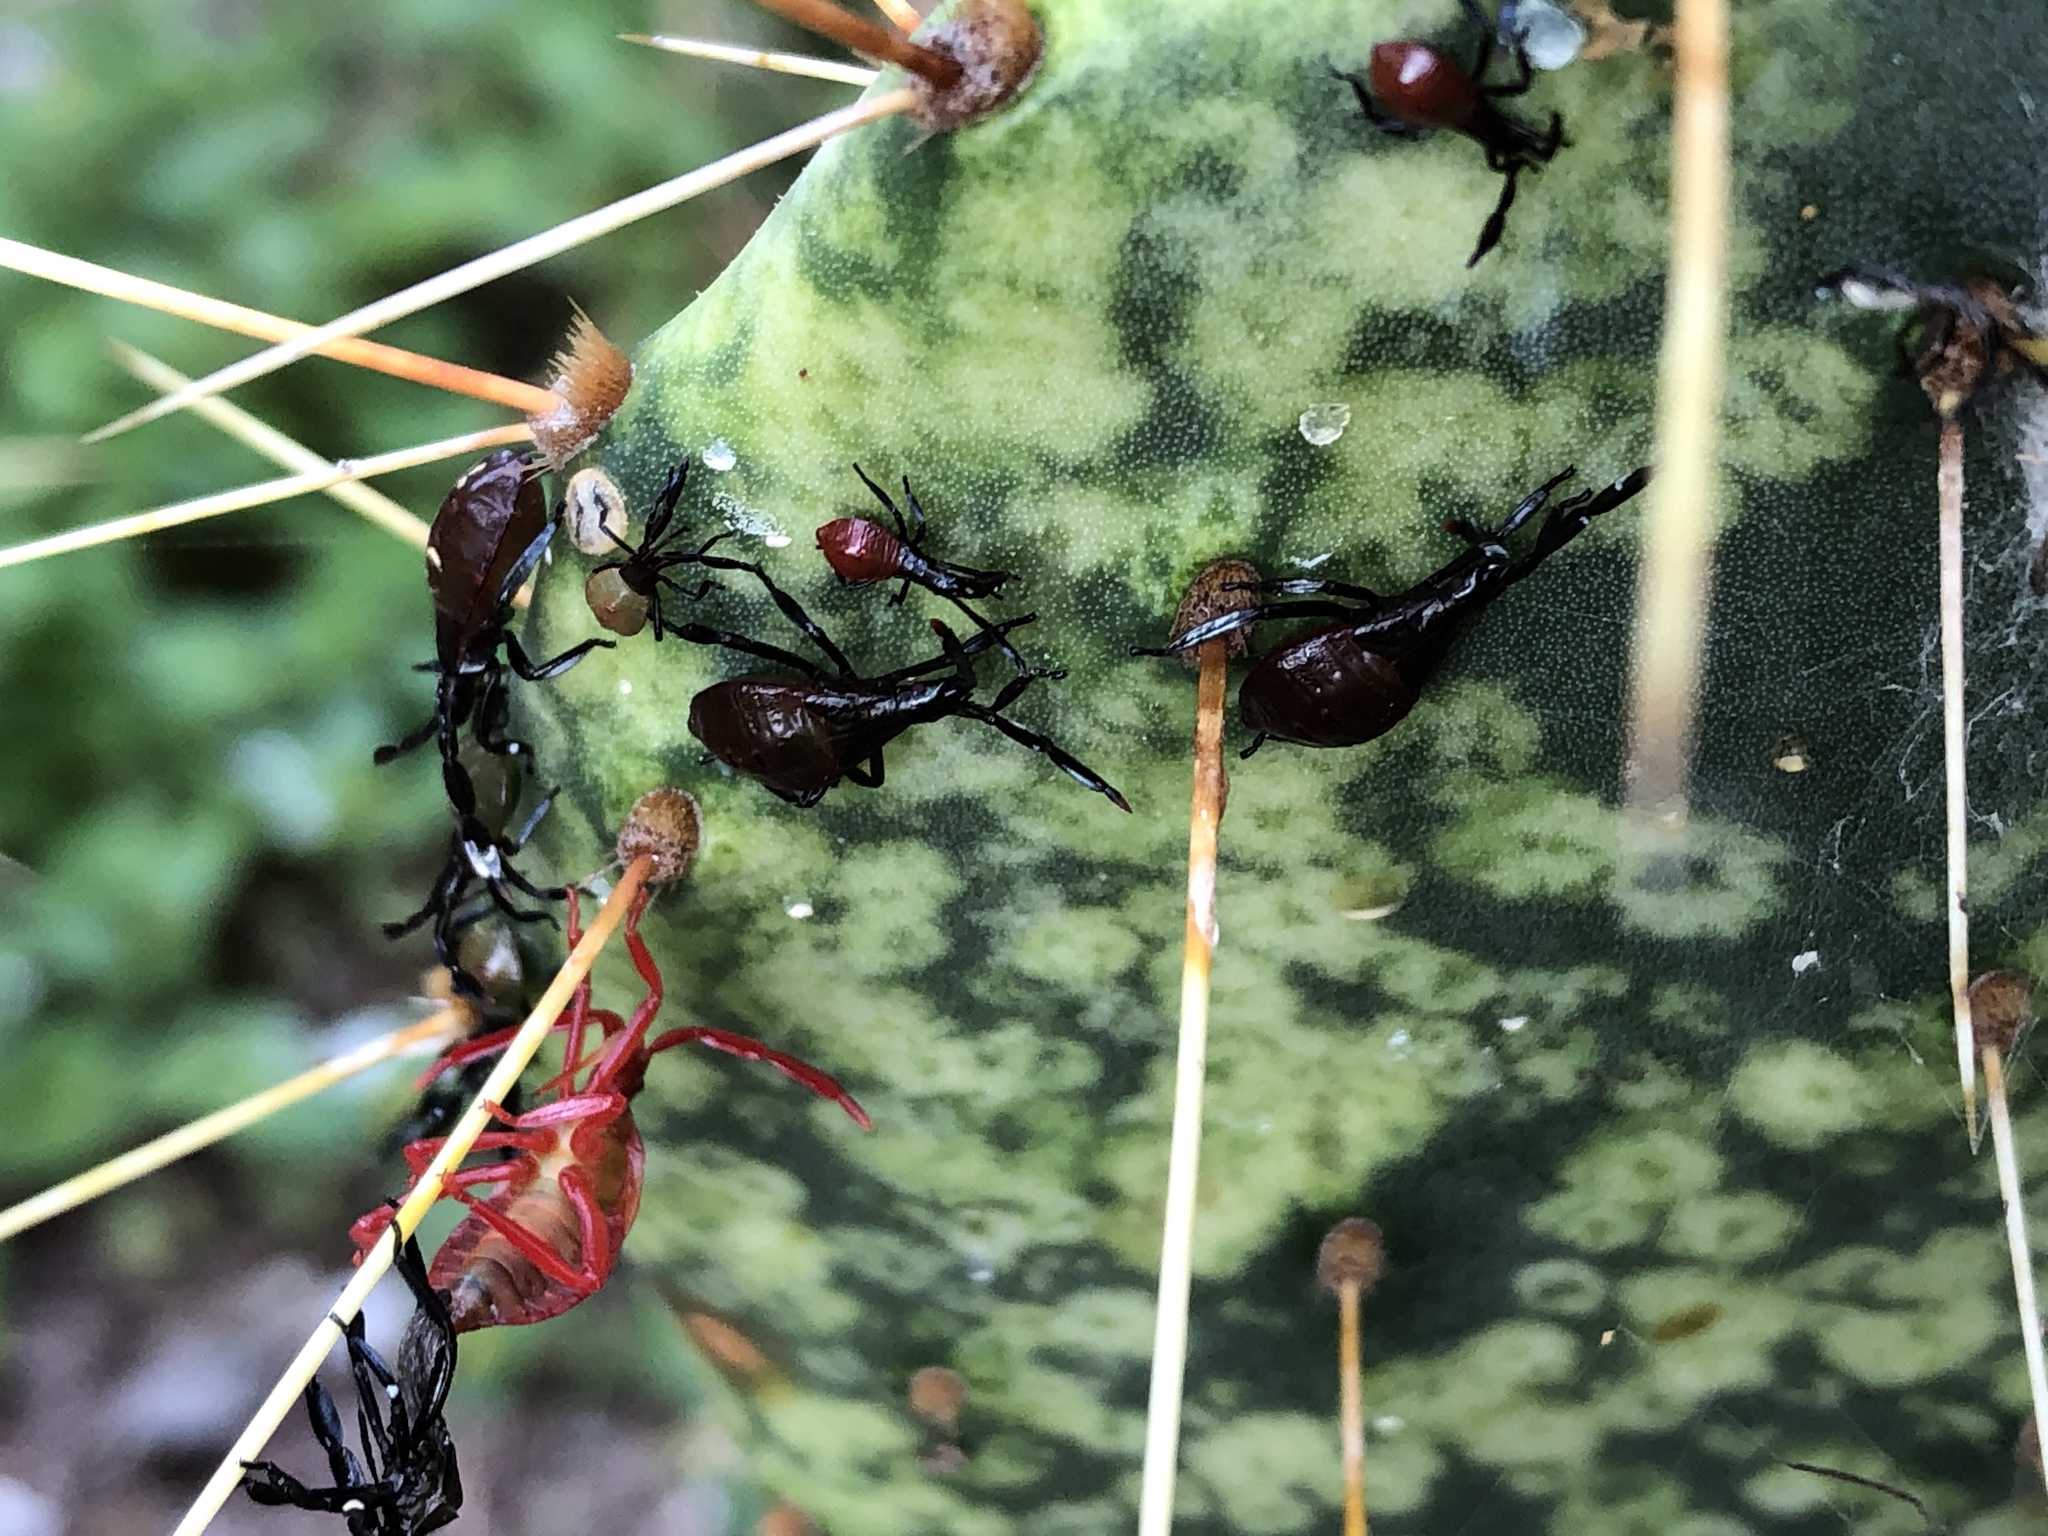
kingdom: Animalia
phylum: Arthropoda
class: Insecta
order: Hemiptera
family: Coreidae
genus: Chelinidea
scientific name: Chelinidea vittiger
